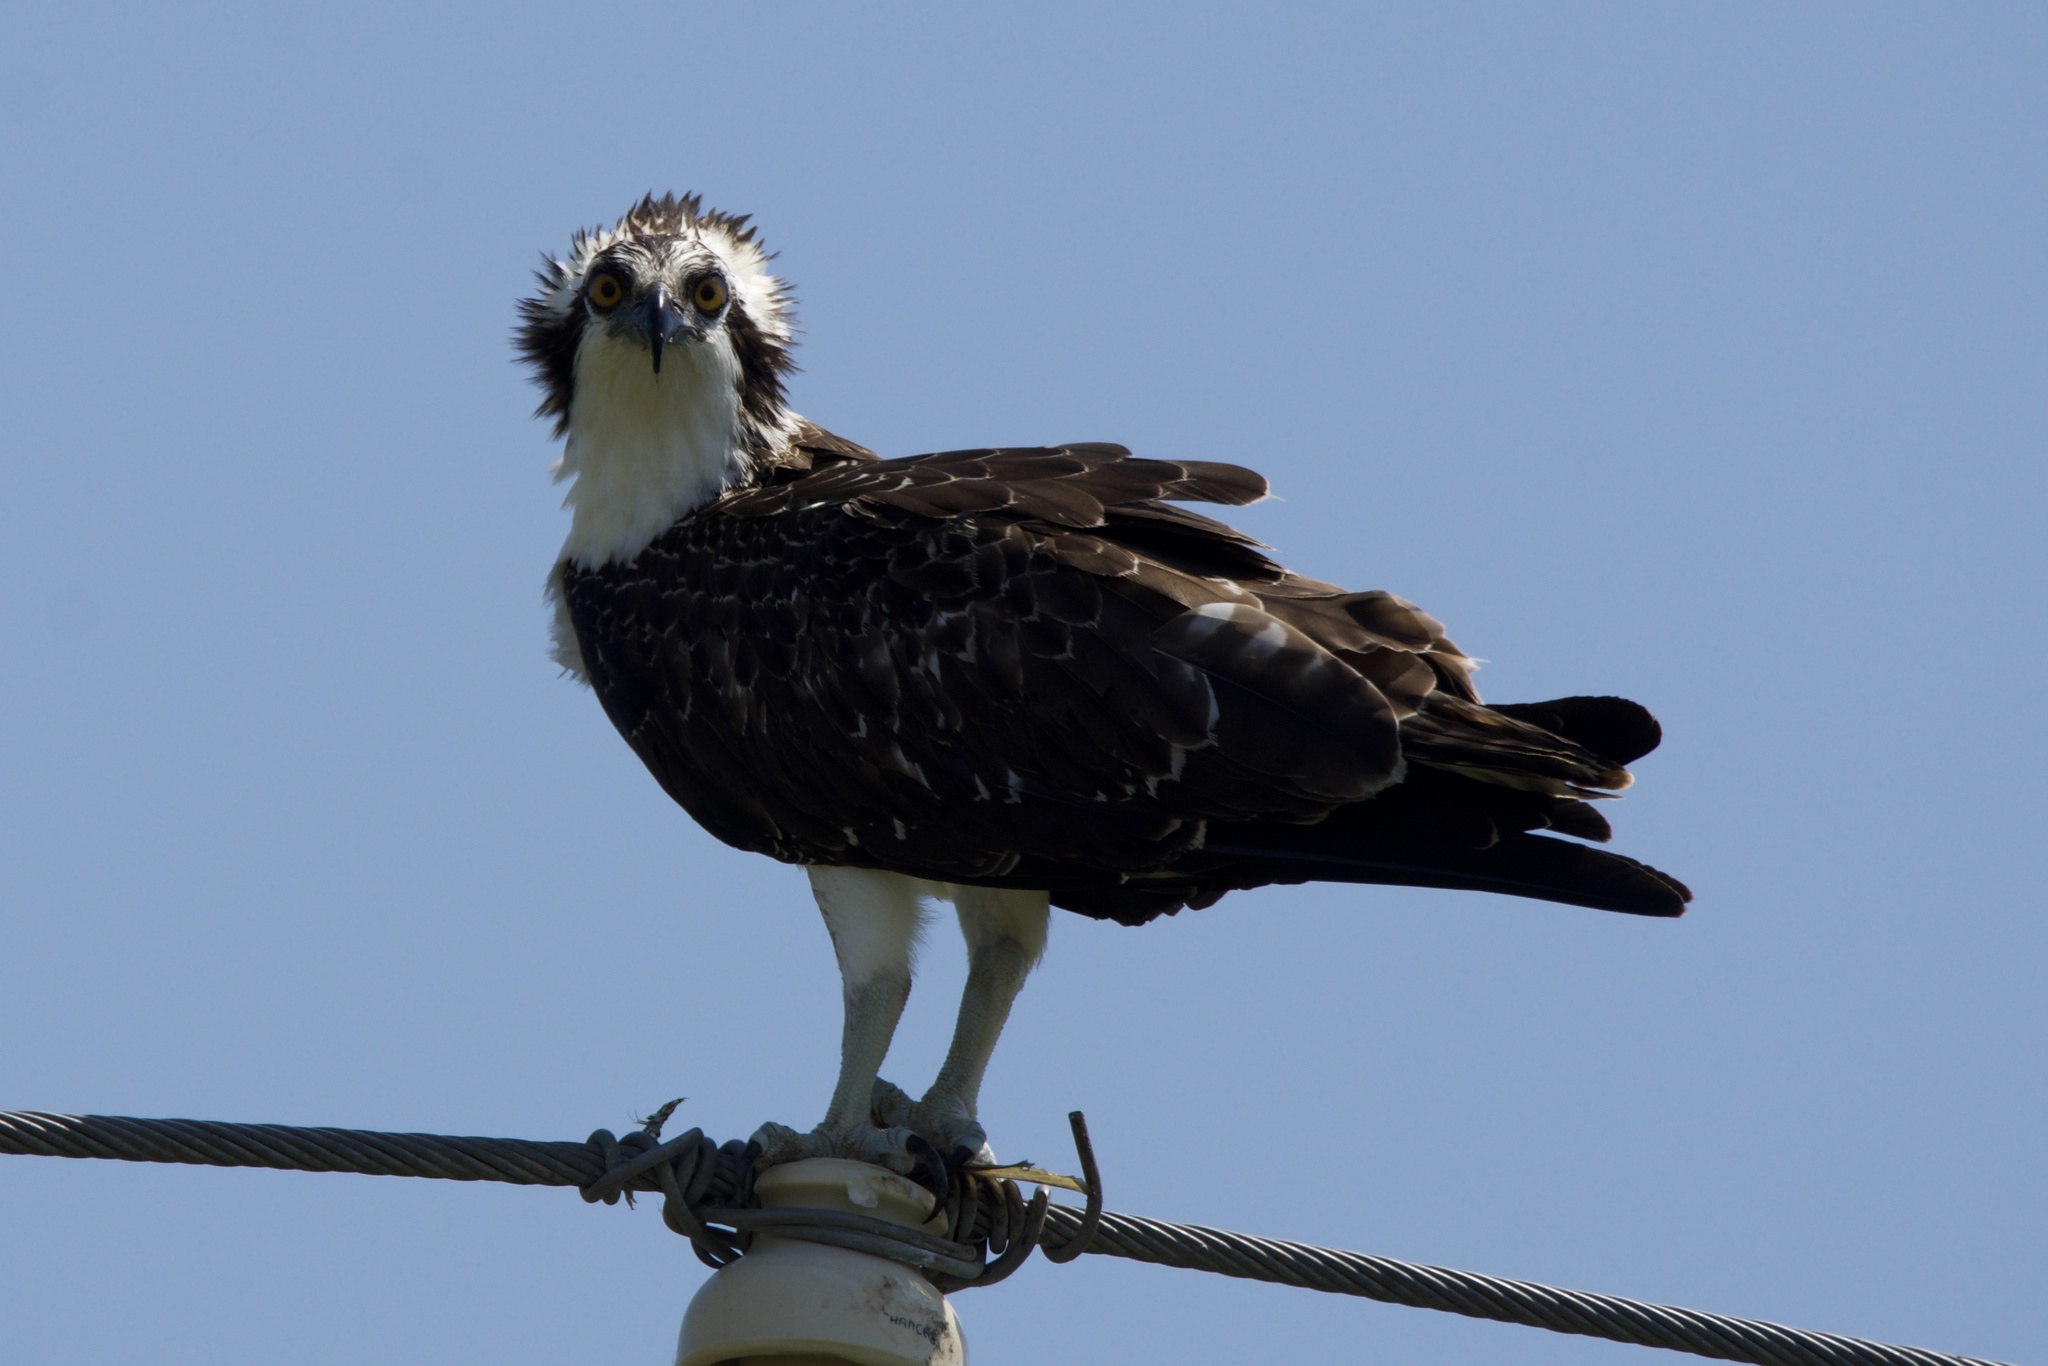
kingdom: Animalia
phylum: Chordata
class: Aves
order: Accipitriformes
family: Pandionidae
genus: Pandion
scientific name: Pandion haliaetus
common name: Osprey
